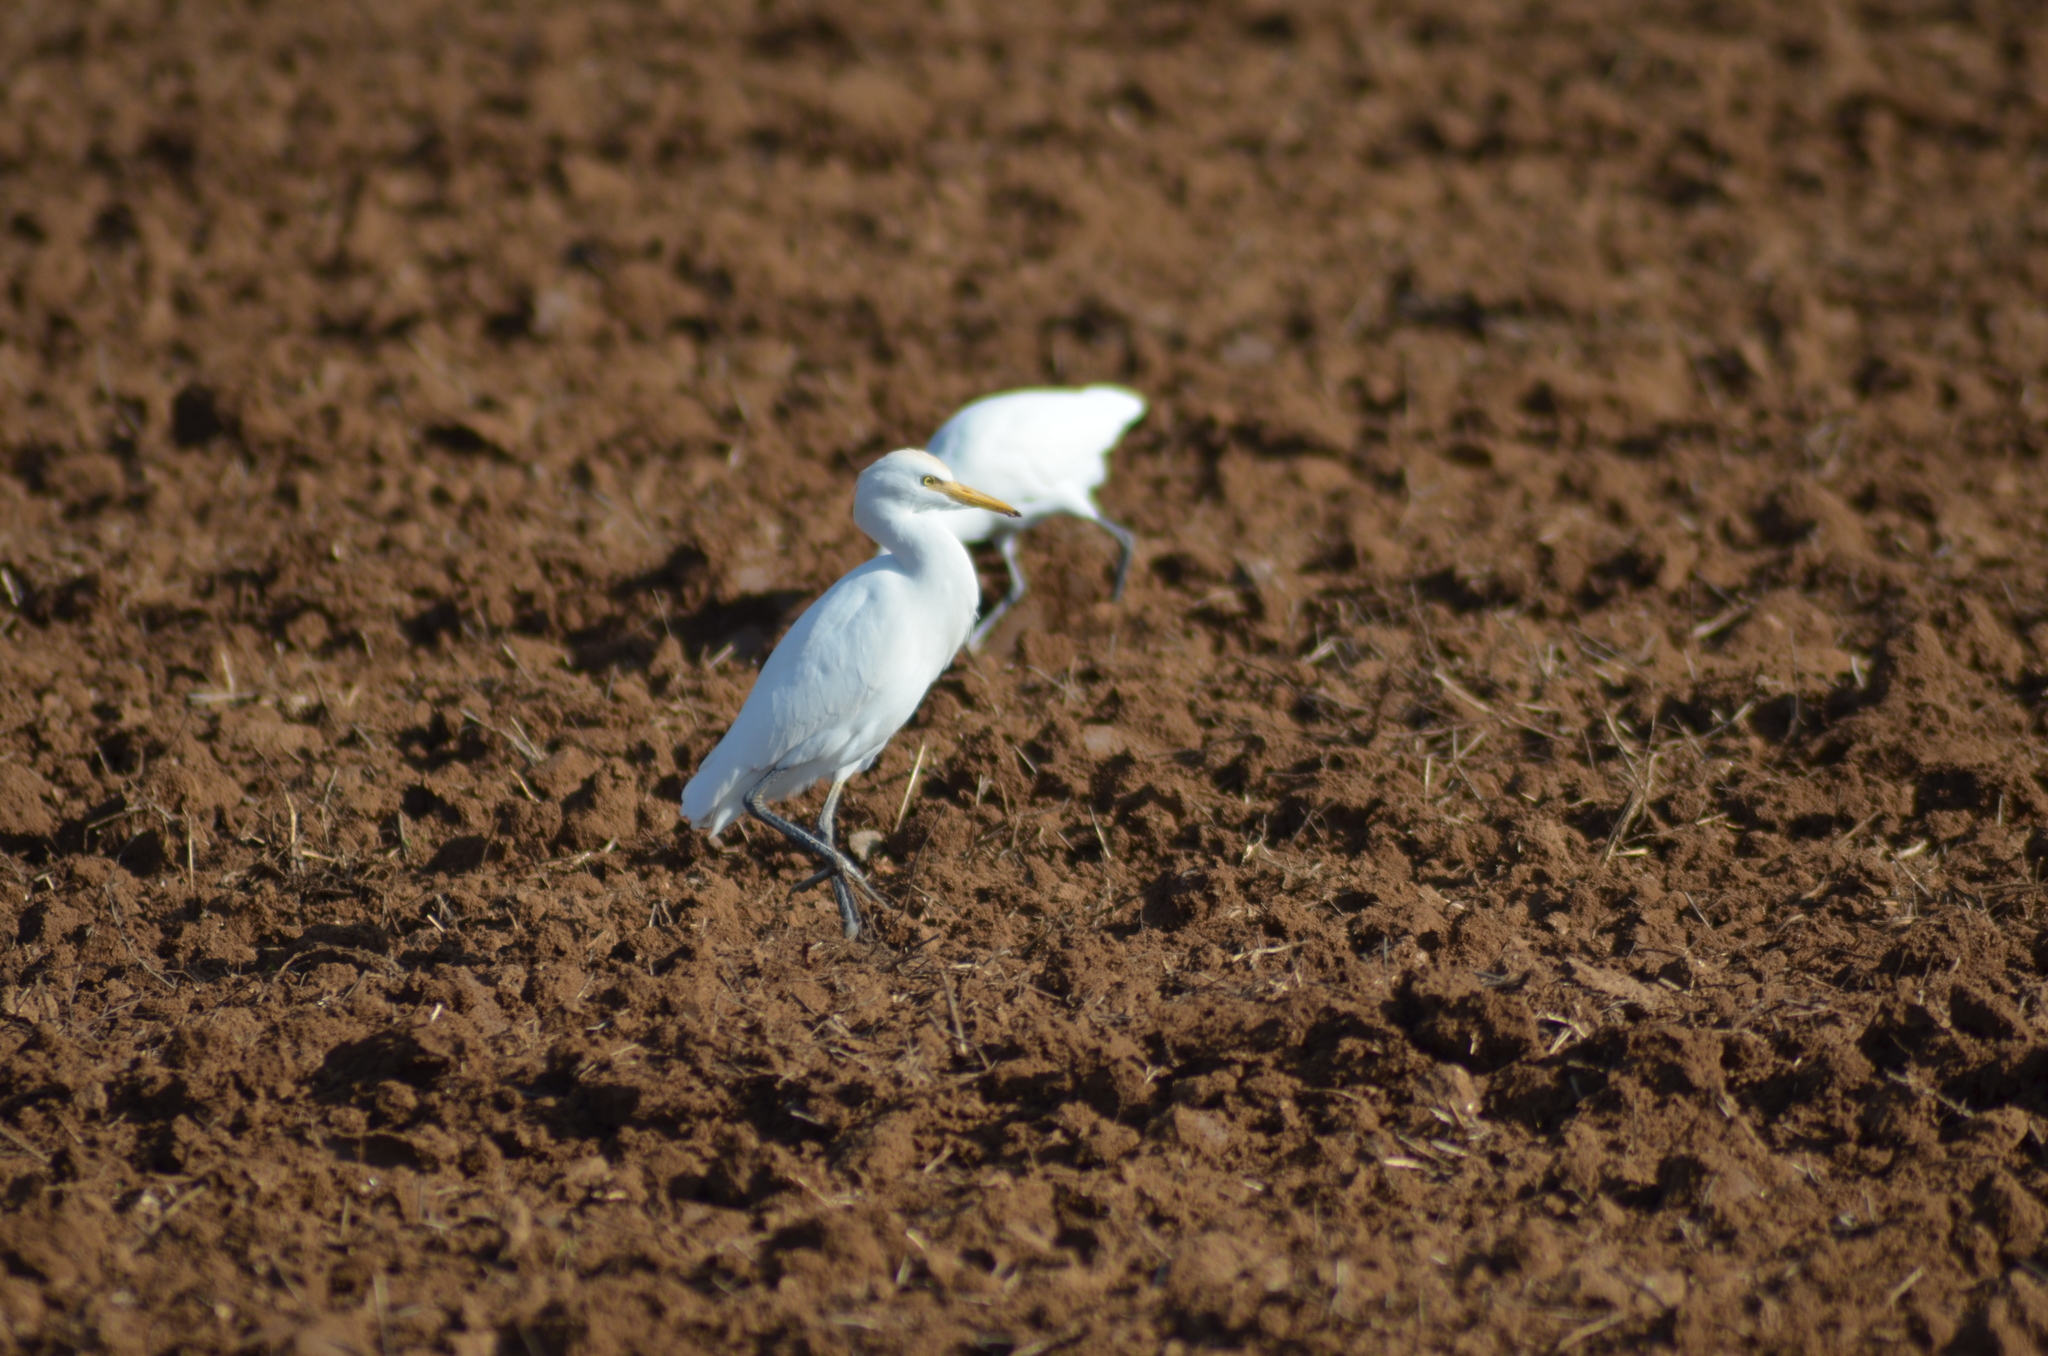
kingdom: Animalia
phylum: Chordata
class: Aves
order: Pelecaniformes
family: Ardeidae
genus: Bubulcus
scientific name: Bubulcus ibis
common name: Cattle egret
